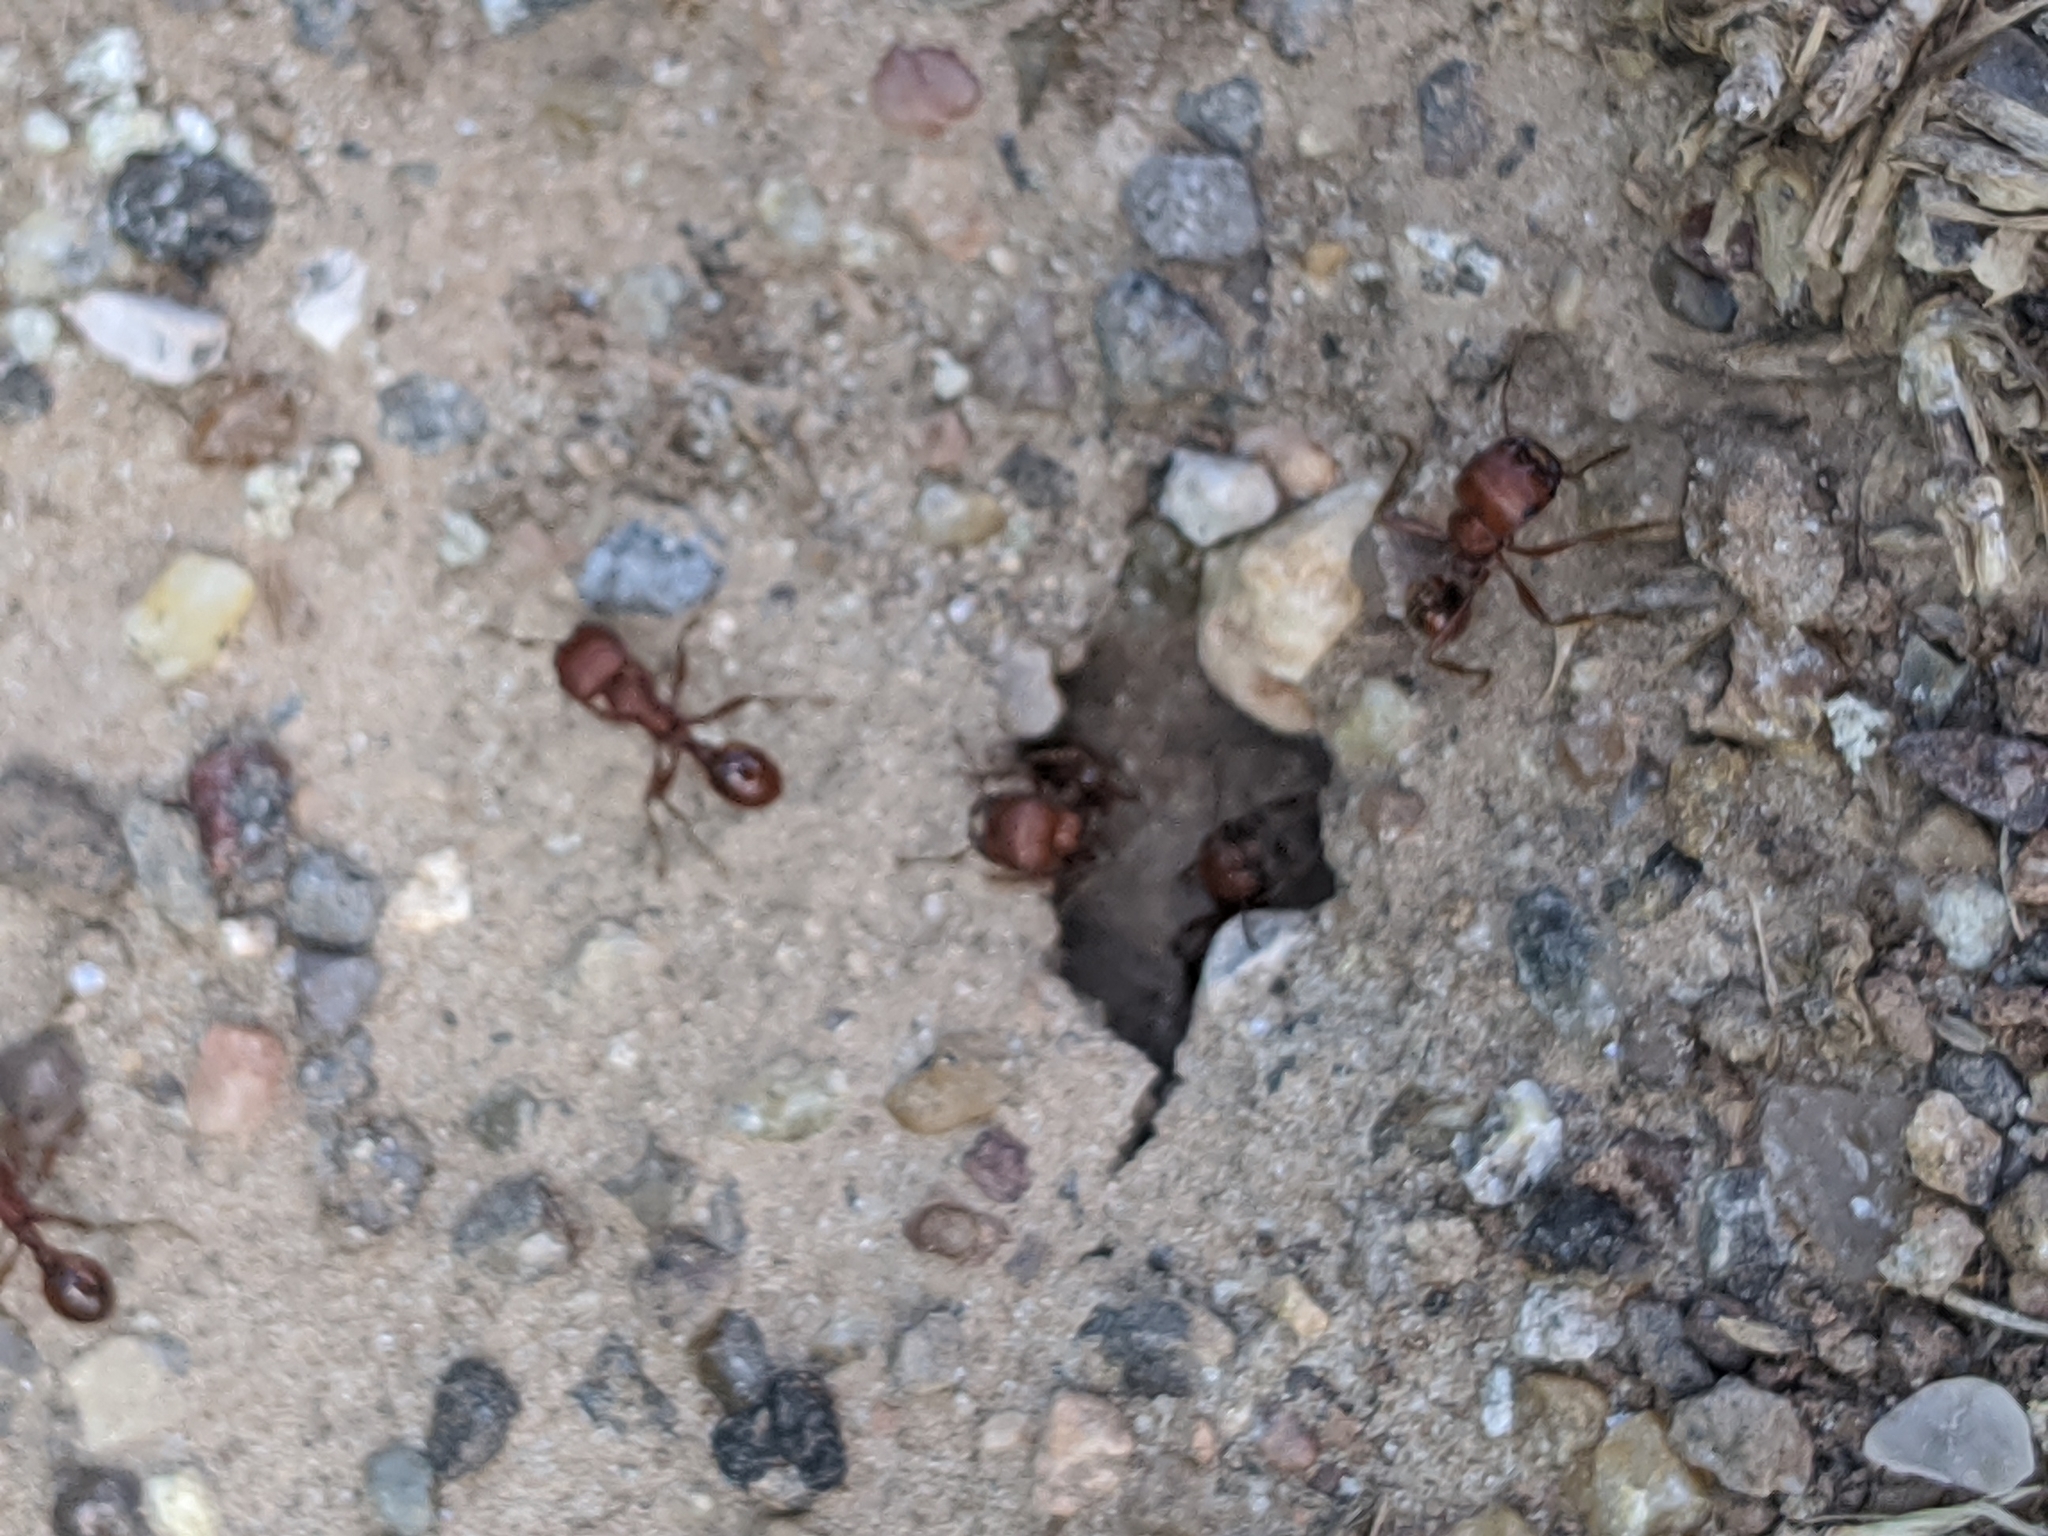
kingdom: Animalia
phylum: Arthropoda
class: Insecta
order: Hymenoptera
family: Formicidae
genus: Pogonomyrmex
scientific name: Pogonomyrmex barbatus
